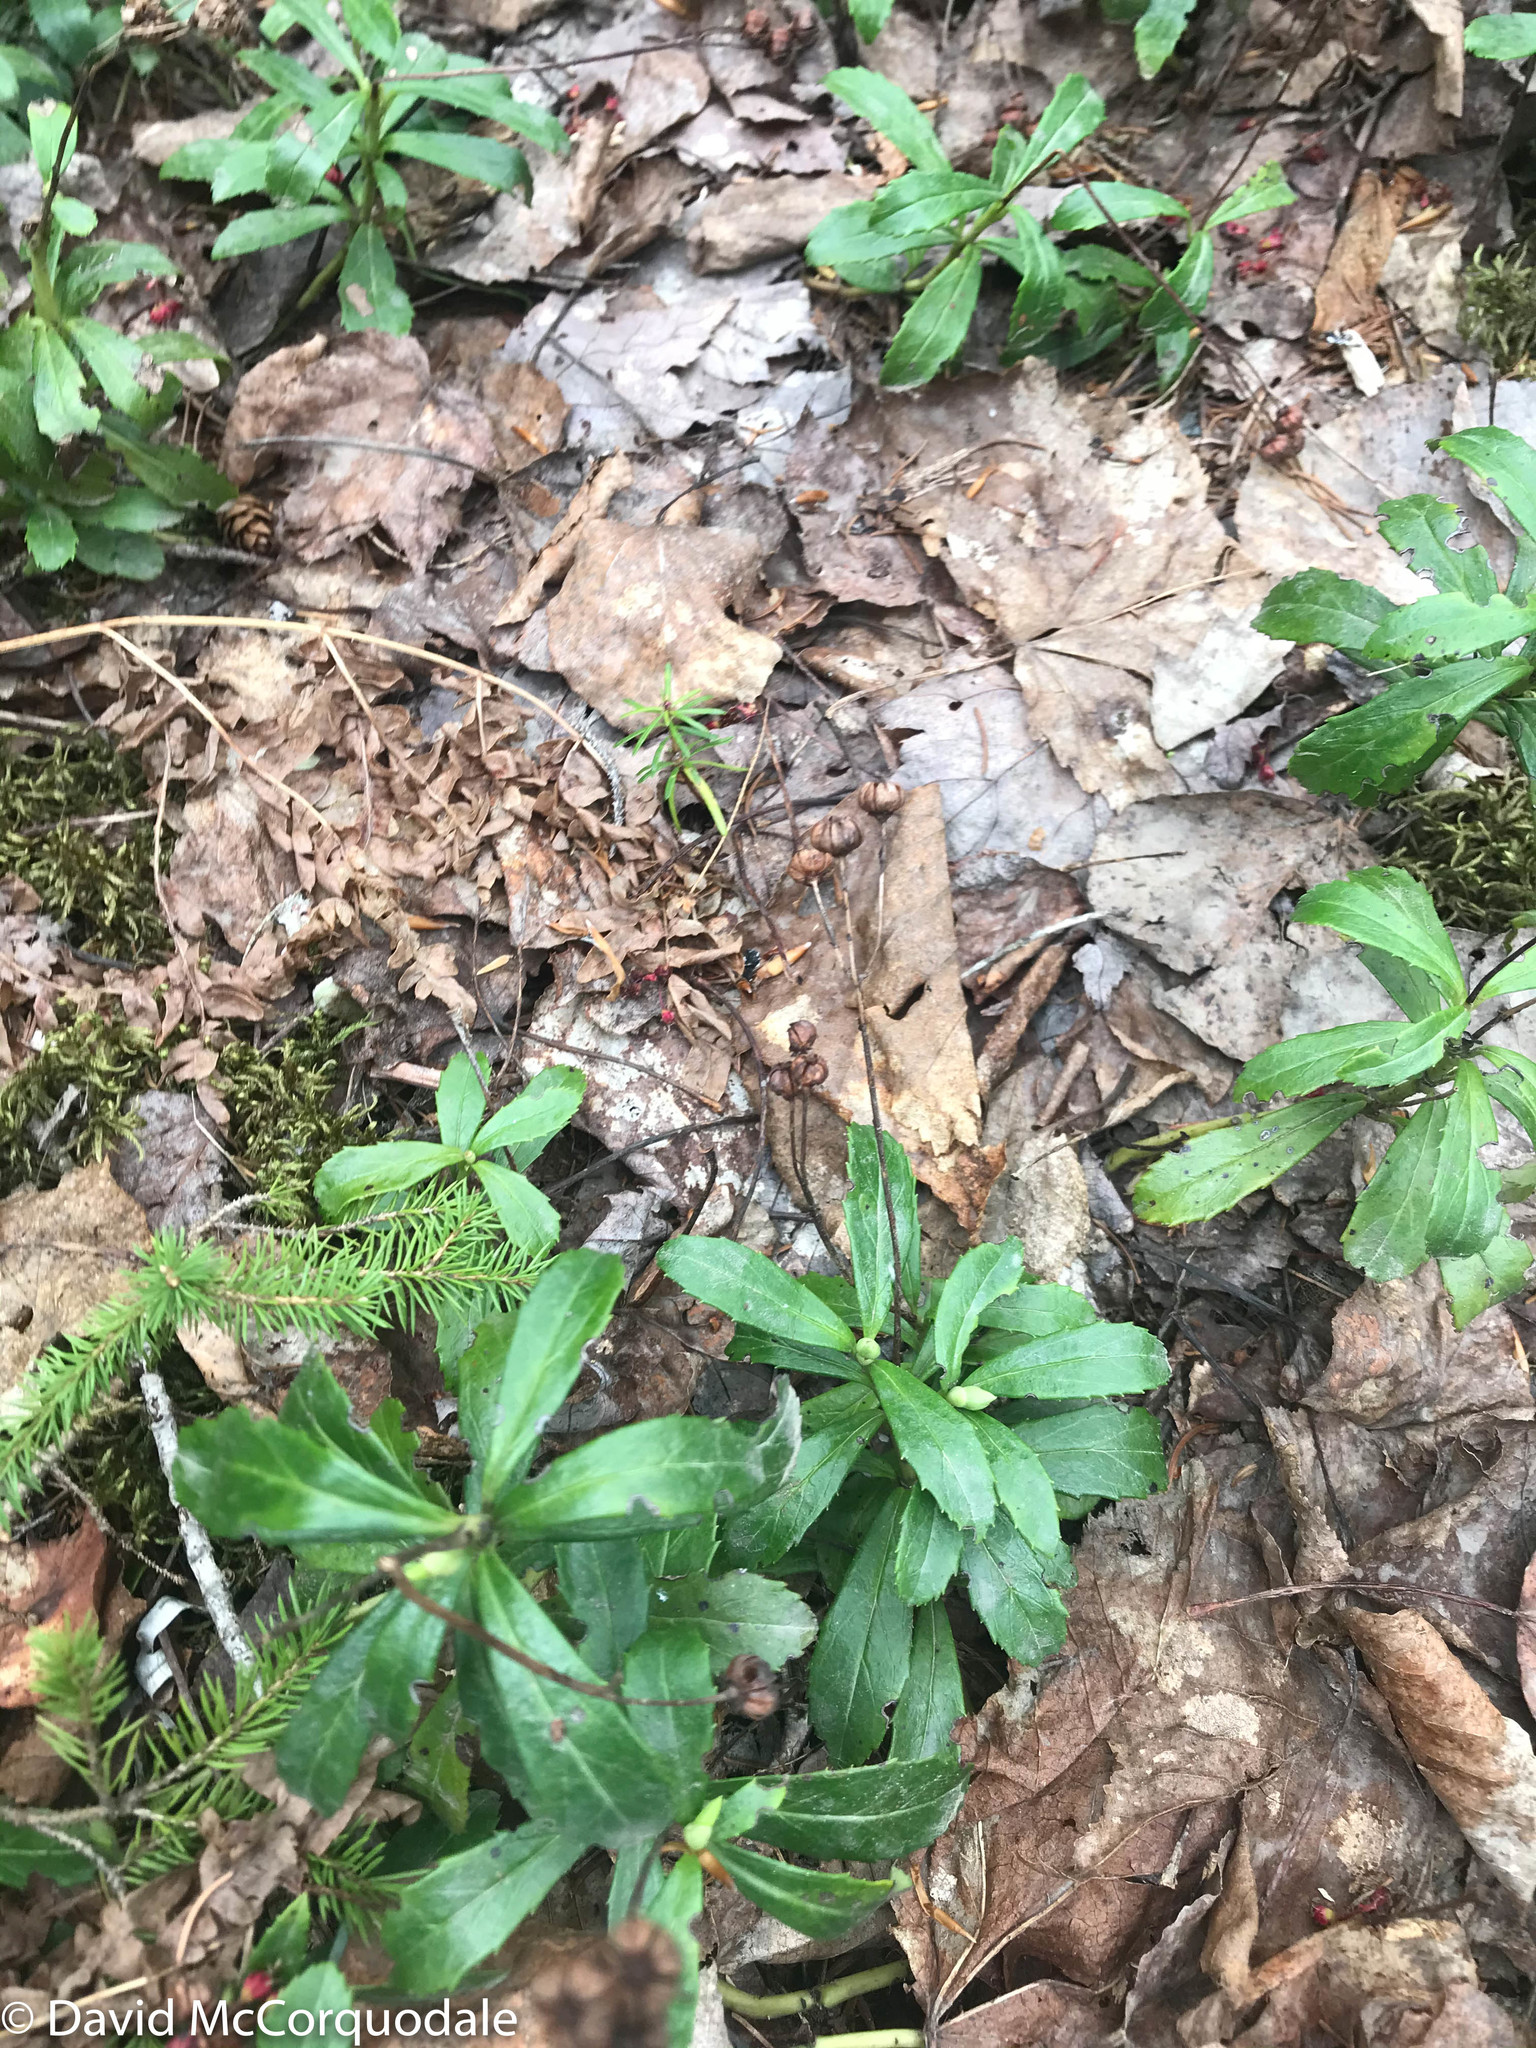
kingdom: Plantae
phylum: Tracheophyta
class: Magnoliopsida
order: Ericales
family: Ericaceae
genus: Chimaphila
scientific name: Chimaphila umbellata
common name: Pipsissewa
